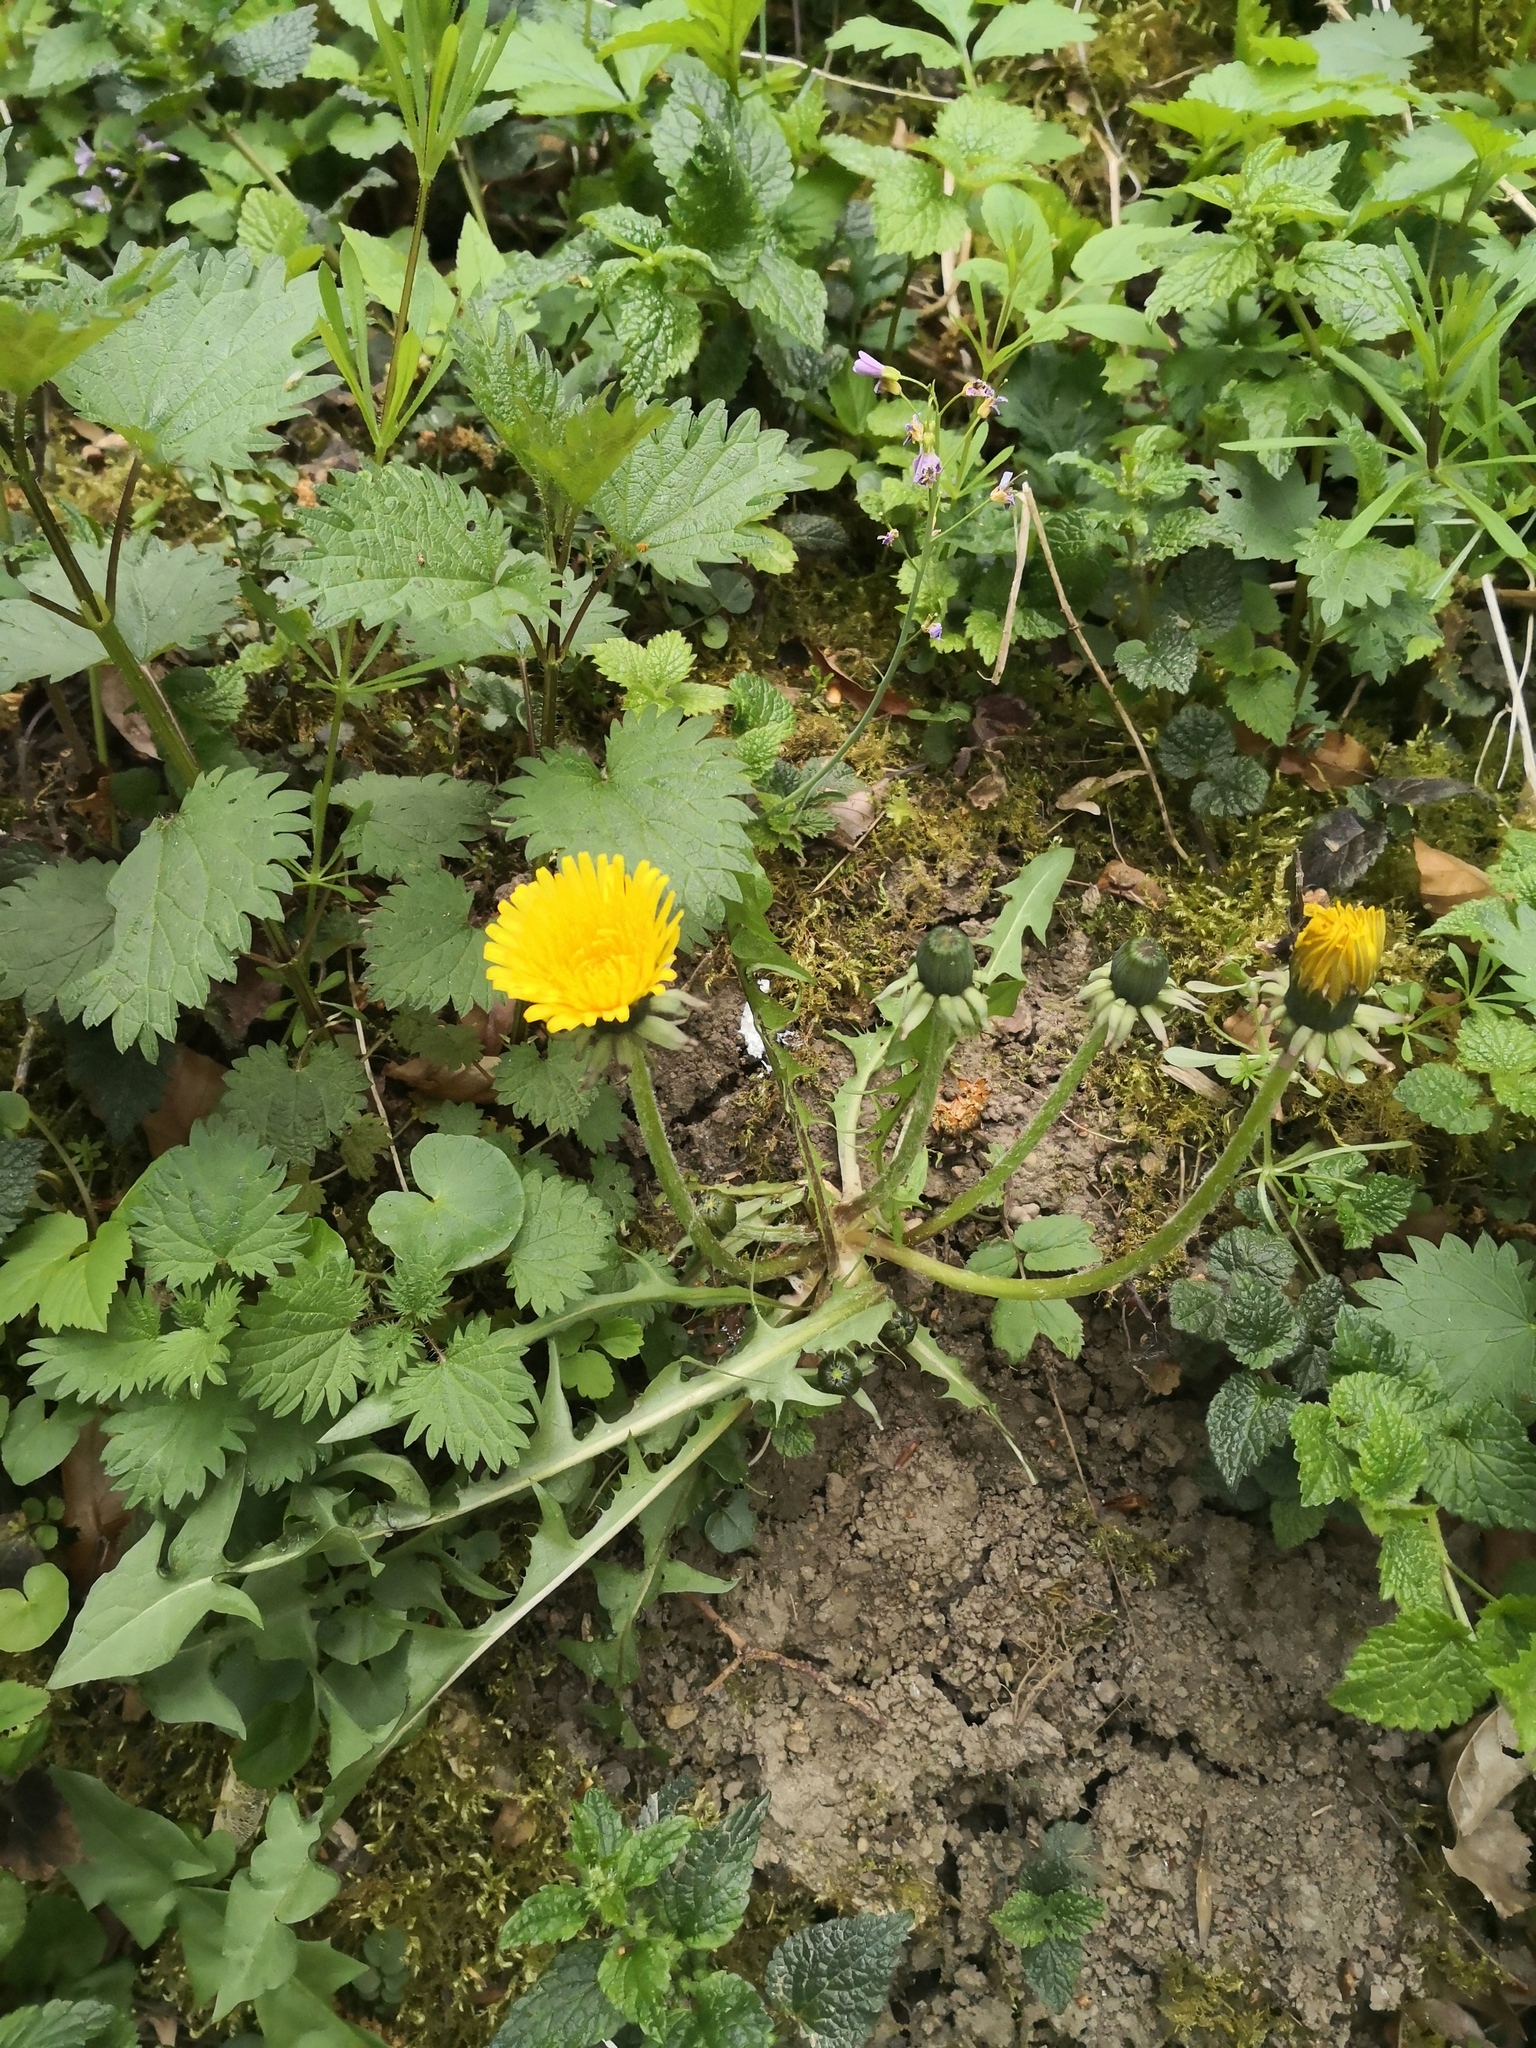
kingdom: Plantae
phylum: Tracheophyta
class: Magnoliopsida
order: Asterales
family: Asteraceae
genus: Taraxacum
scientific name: Taraxacum officinale
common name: Common dandelion
